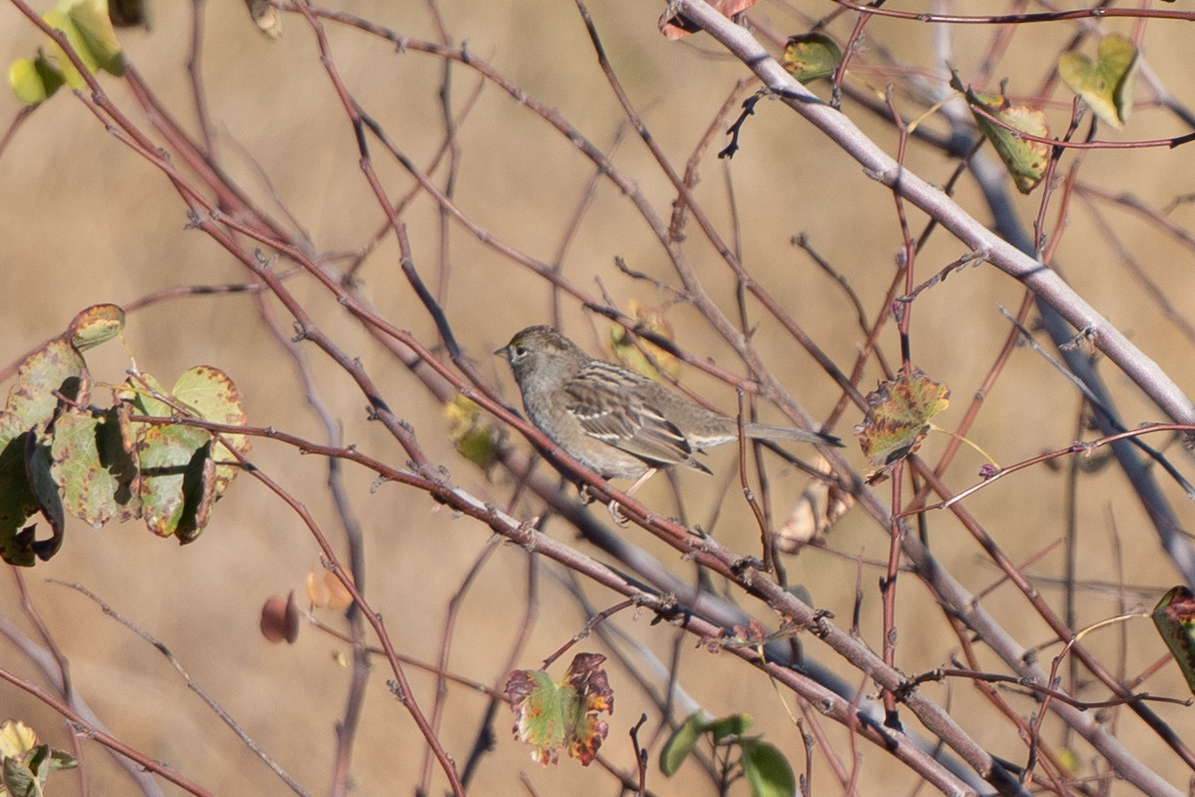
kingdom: Animalia
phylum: Chordata
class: Aves
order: Passeriformes
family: Passerellidae
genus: Zonotrichia
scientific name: Zonotrichia atricapilla
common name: Golden-crowned sparrow
